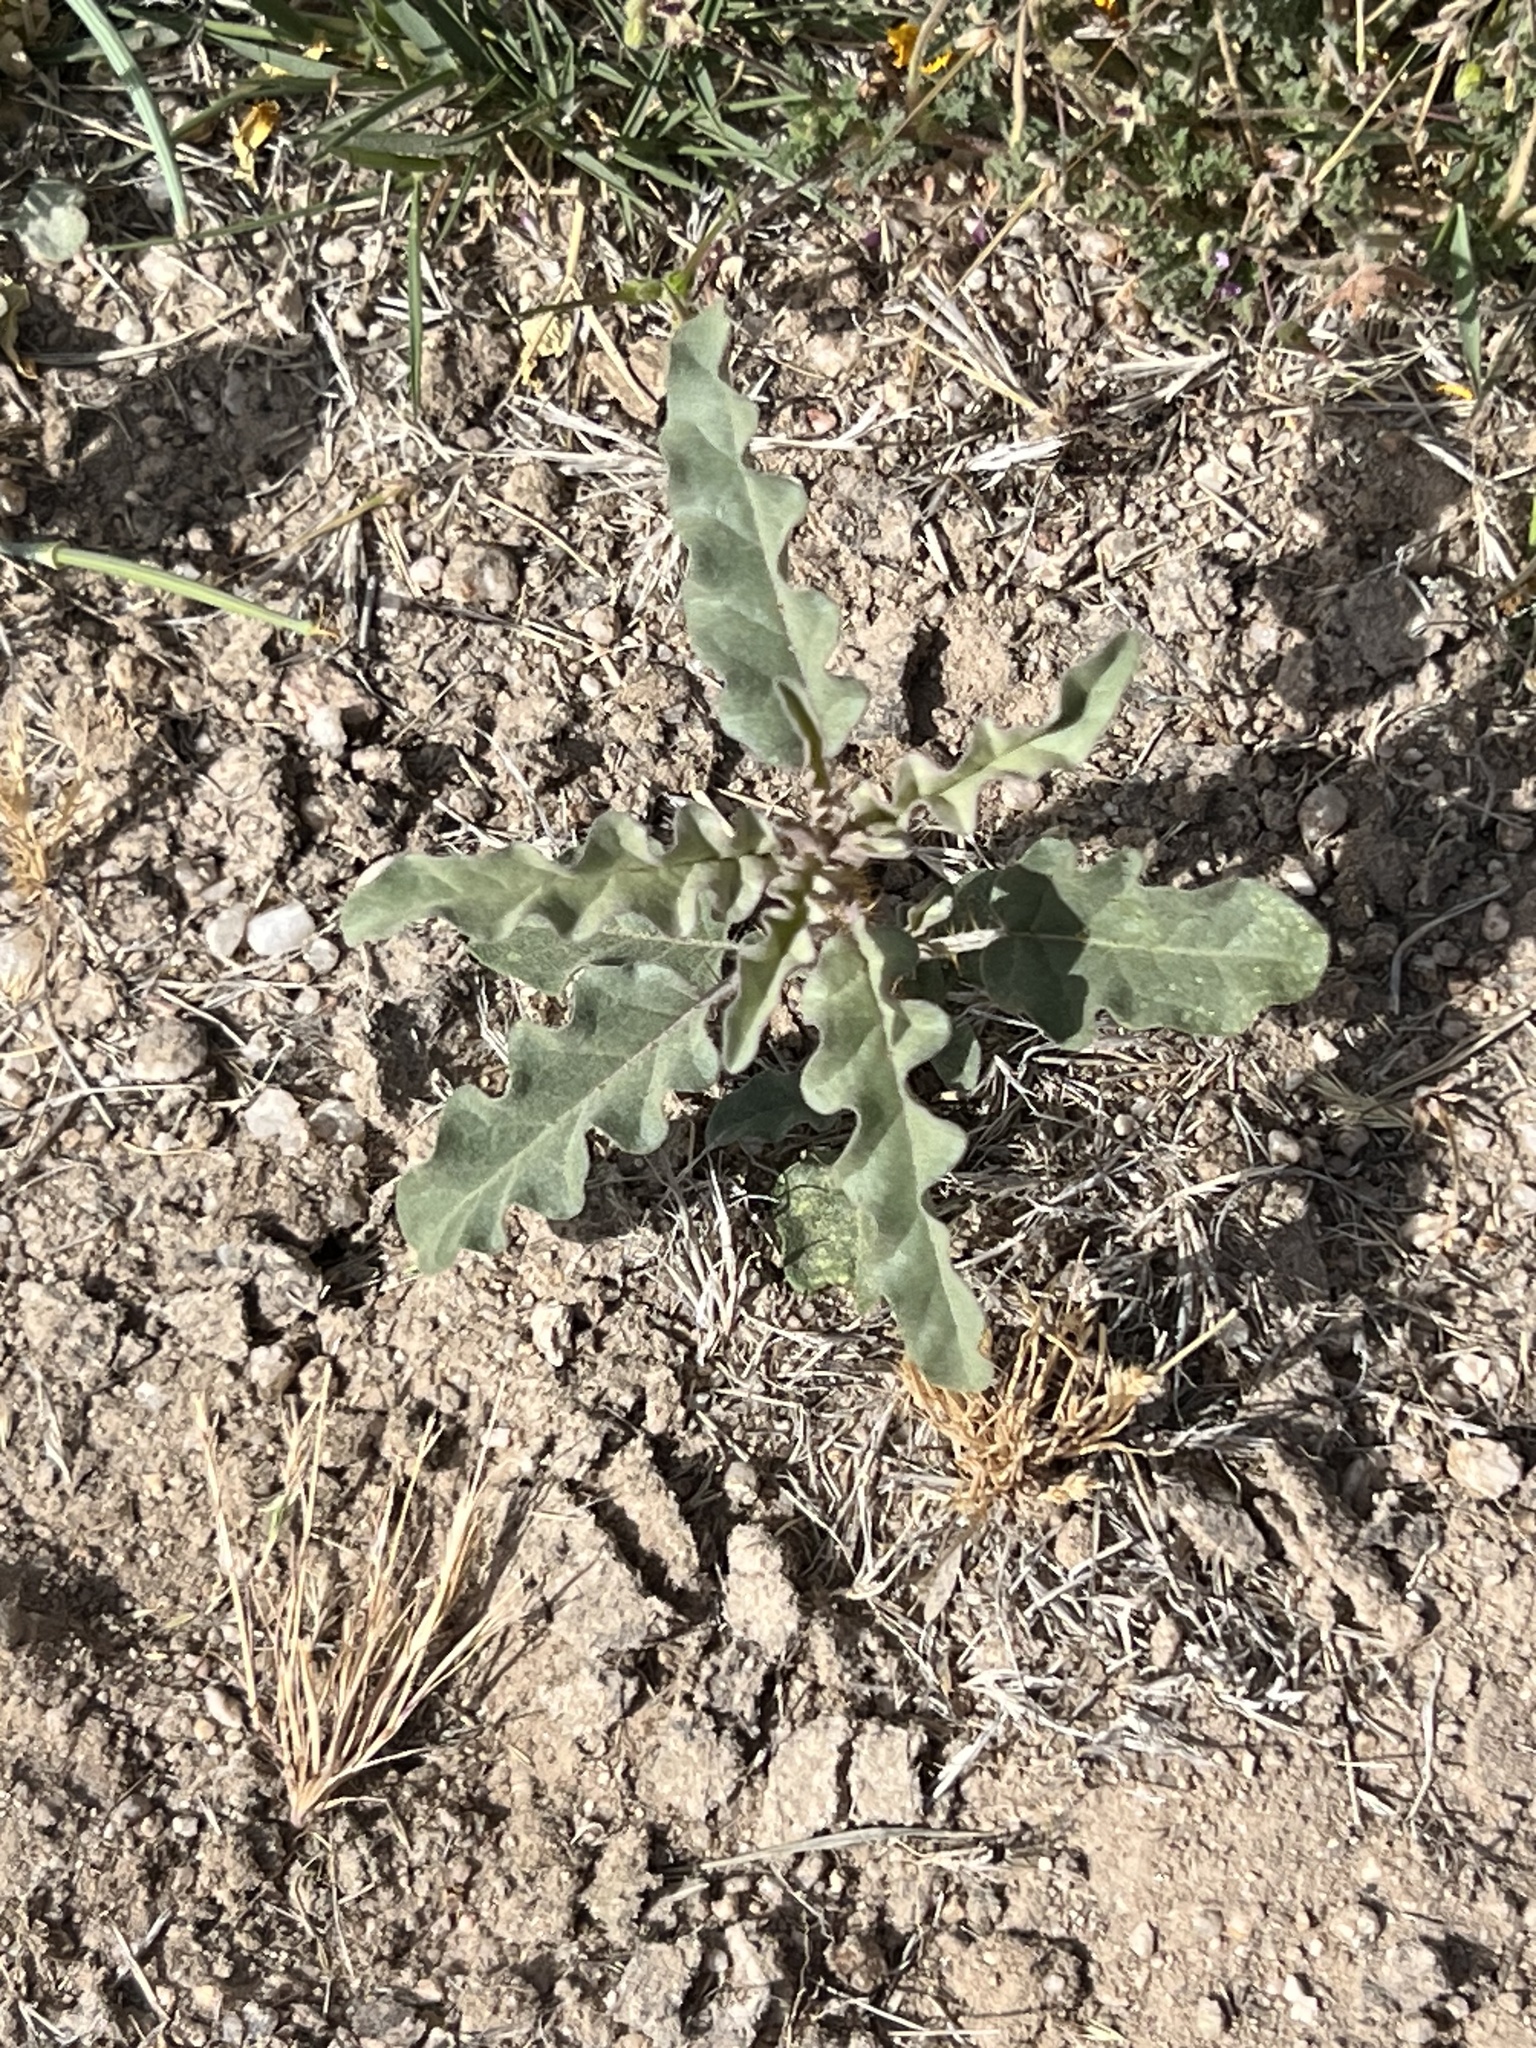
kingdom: Plantae
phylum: Tracheophyta
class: Magnoliopsida
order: Solanales
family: Solanaceae
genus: Solanum
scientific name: Solanum elaeagnifolium
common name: Silverleaf nightshade
